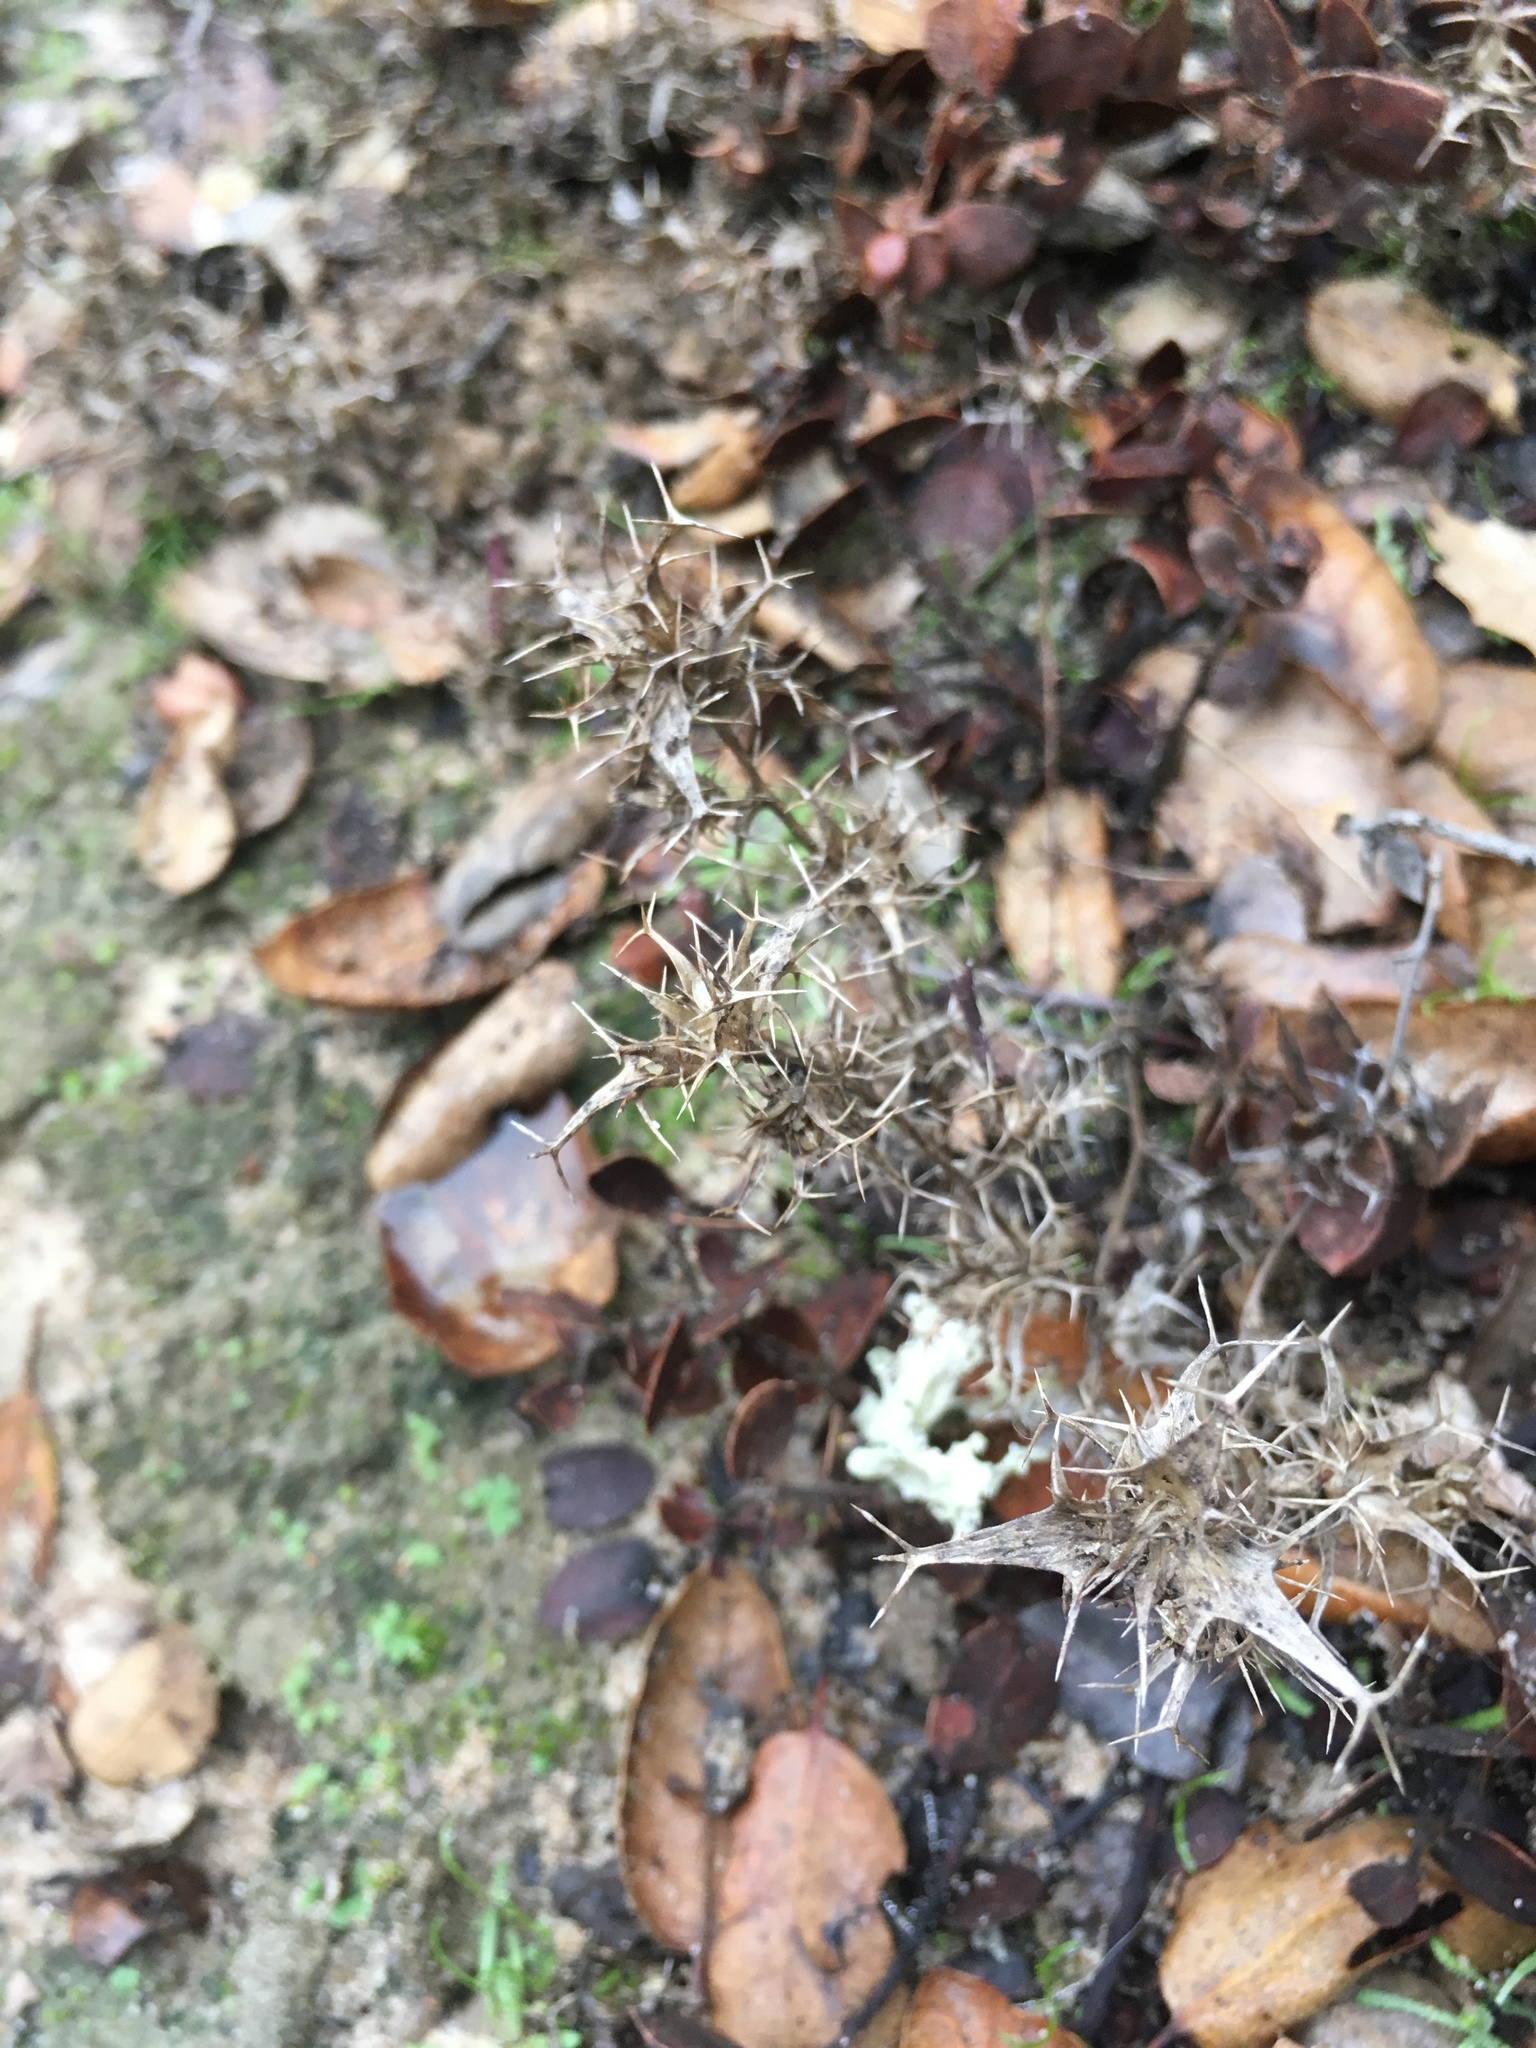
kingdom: Plantae
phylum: Tracheophyta
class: Magnoliopsida
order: Ericales
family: Polemoniaceae
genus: Navarretia
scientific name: Navarretia hamata
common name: Hooked navarretia
